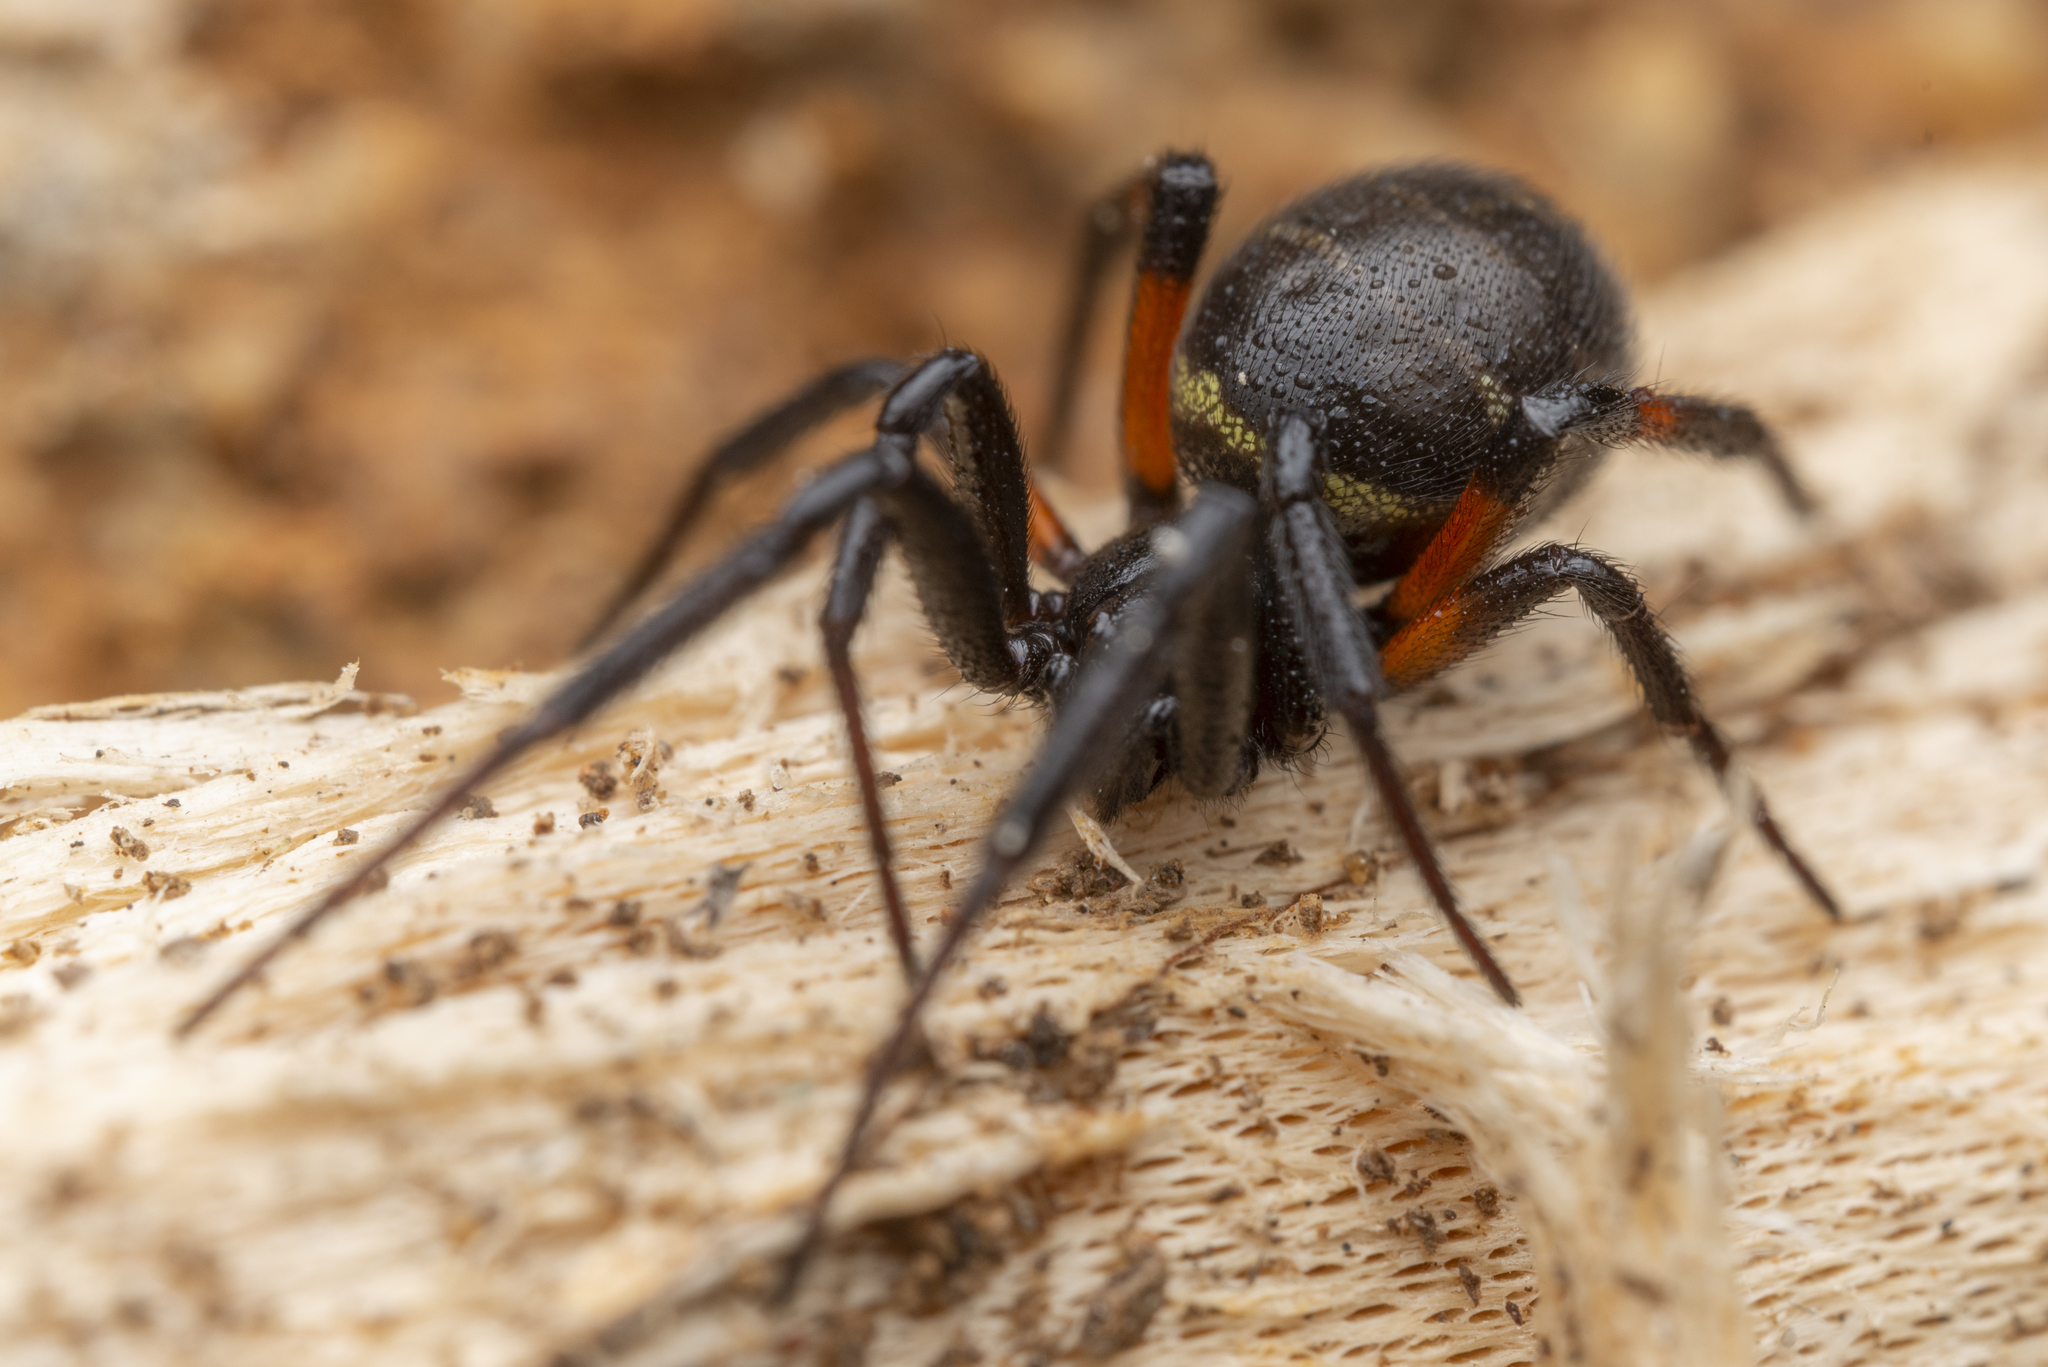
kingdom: Animalia
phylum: Arthropoda
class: Arachnida
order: Araneae
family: Theridiidae
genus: Steatoda
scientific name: Steatoda cingulata
